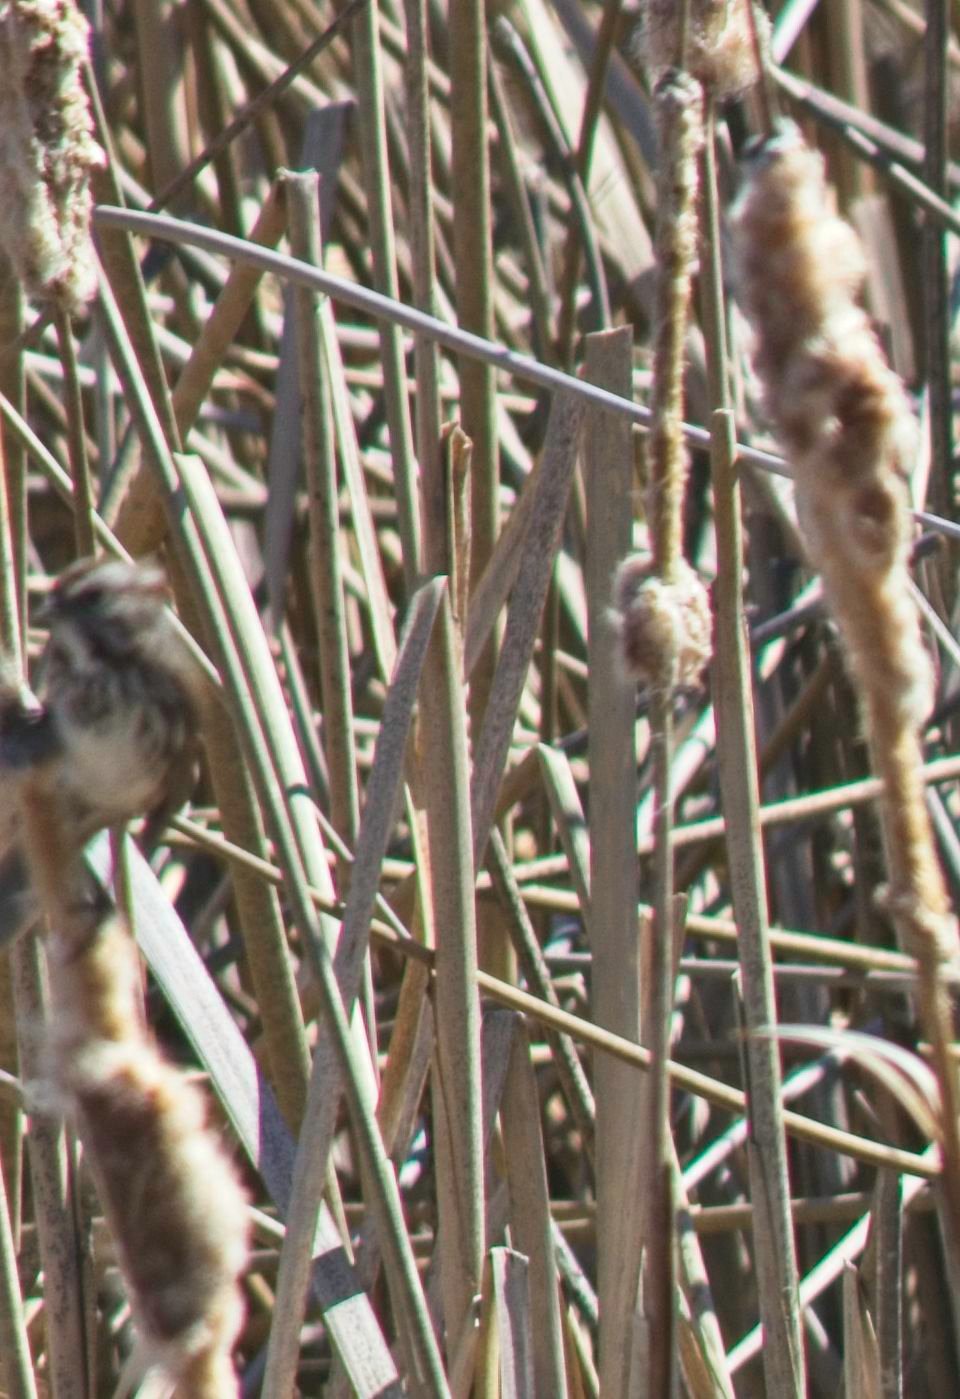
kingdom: Animalia
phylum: Chordata
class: Aves
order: Passeriformes
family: Passerellidae
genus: Melospiza
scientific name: Melospiza melodia
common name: Song sparrow
